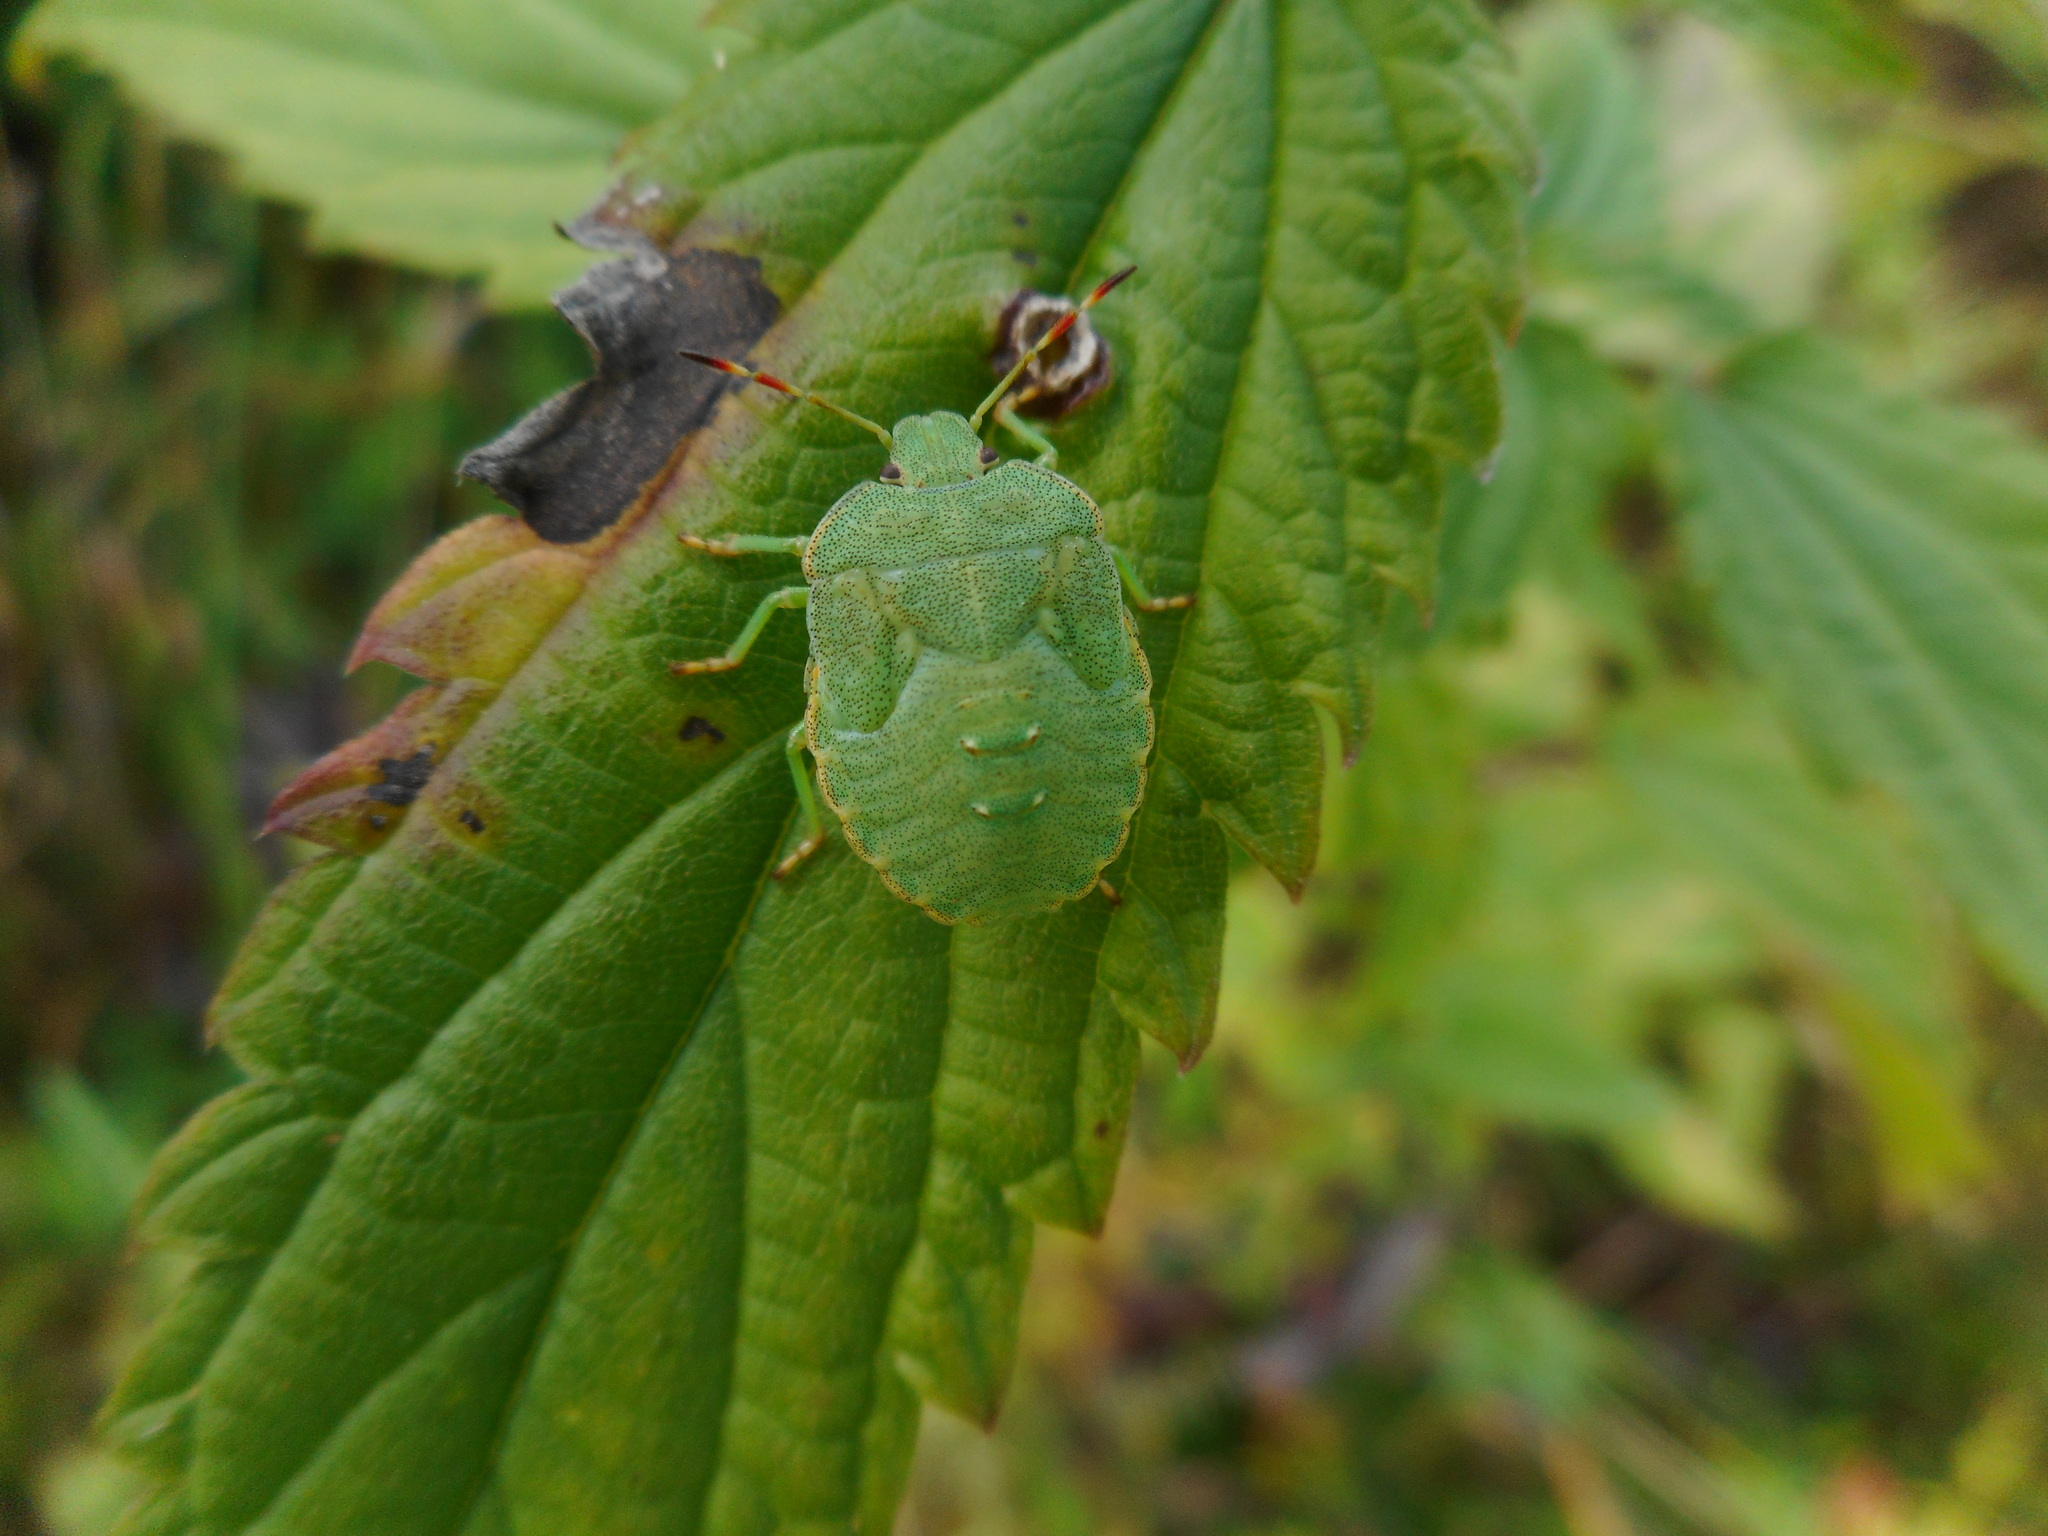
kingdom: Animalia
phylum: Arthropoda
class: Insecta
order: Hemiptera
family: Pentatomidae
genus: Palomena
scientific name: Palomena prasina
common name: Green shieldbug
